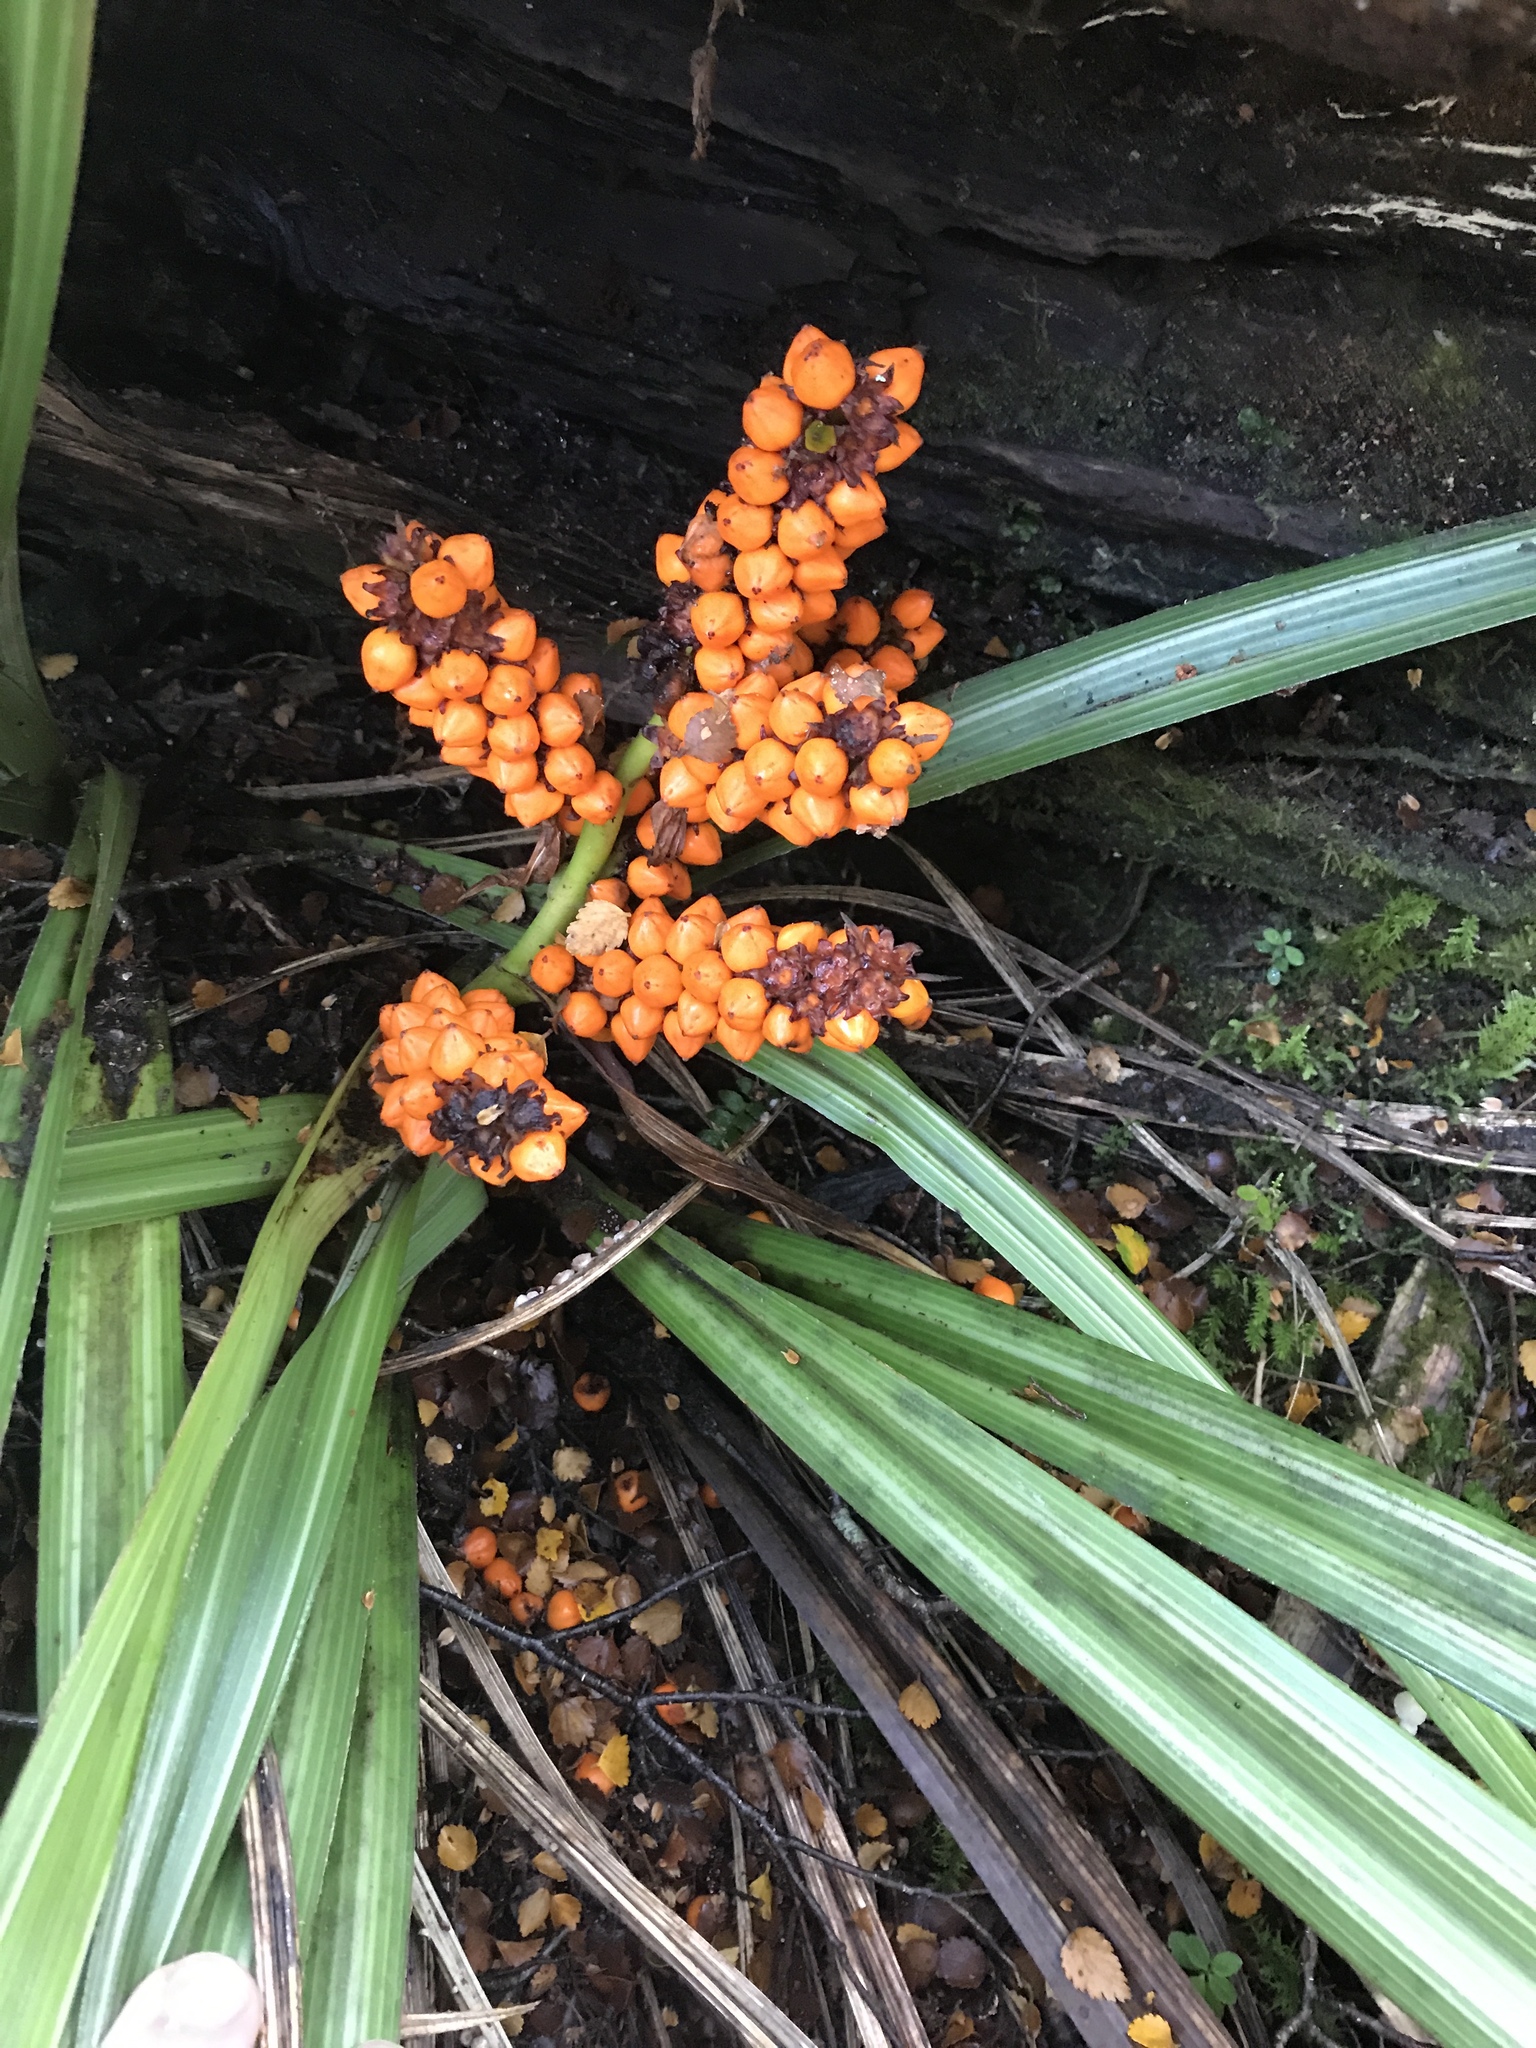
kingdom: Plantae
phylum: Tracheophyta
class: Liliopsida
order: Asparagales
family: Asteliaceae
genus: Astelia
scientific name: Astelia fragrans
